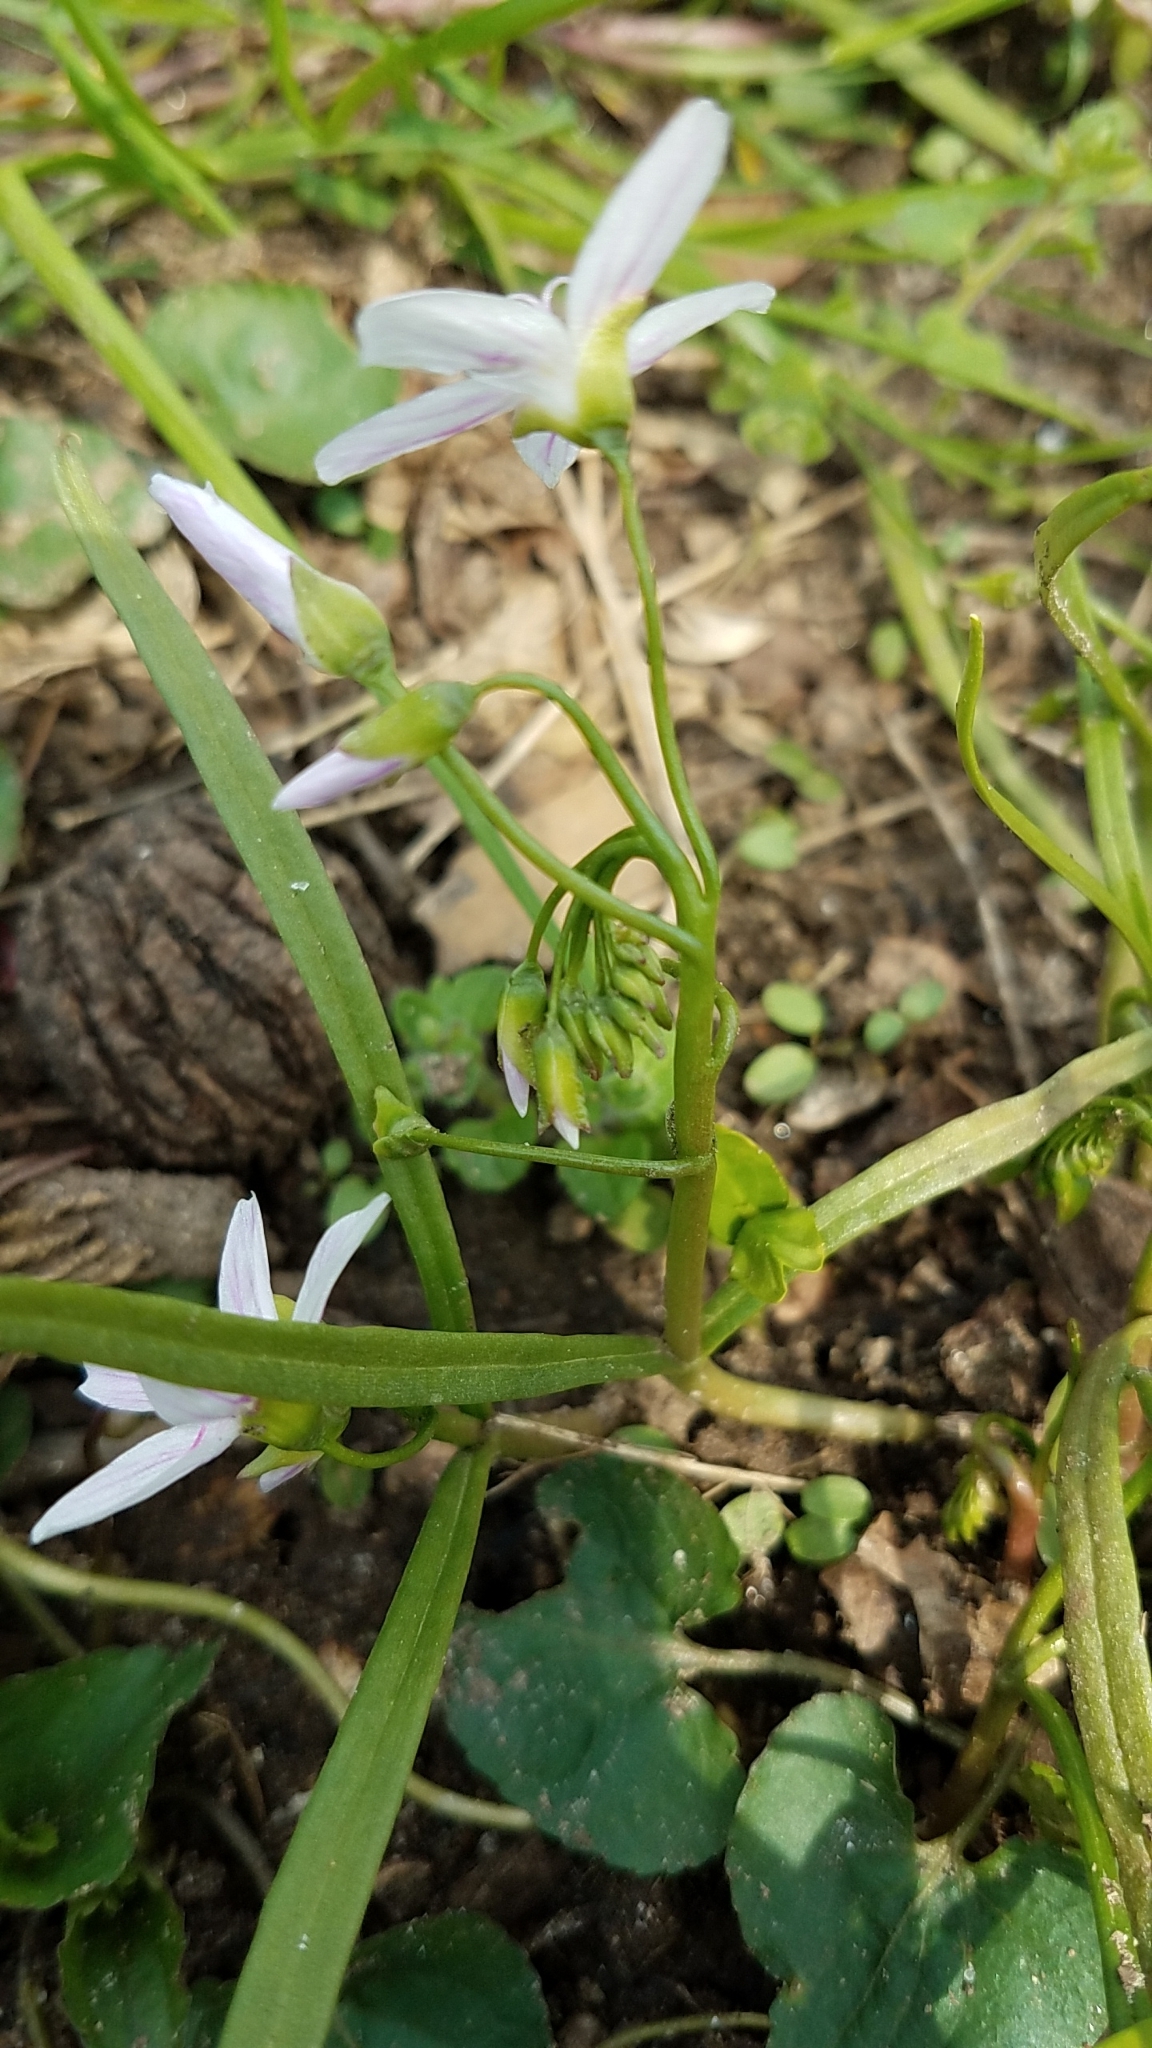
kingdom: Plantae
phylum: Tracheophyta
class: Magnoliopsida
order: Caryophyllales
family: Montiaceae
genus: Claytonia
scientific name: Claytonia virginica
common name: Virginia springbeauty
